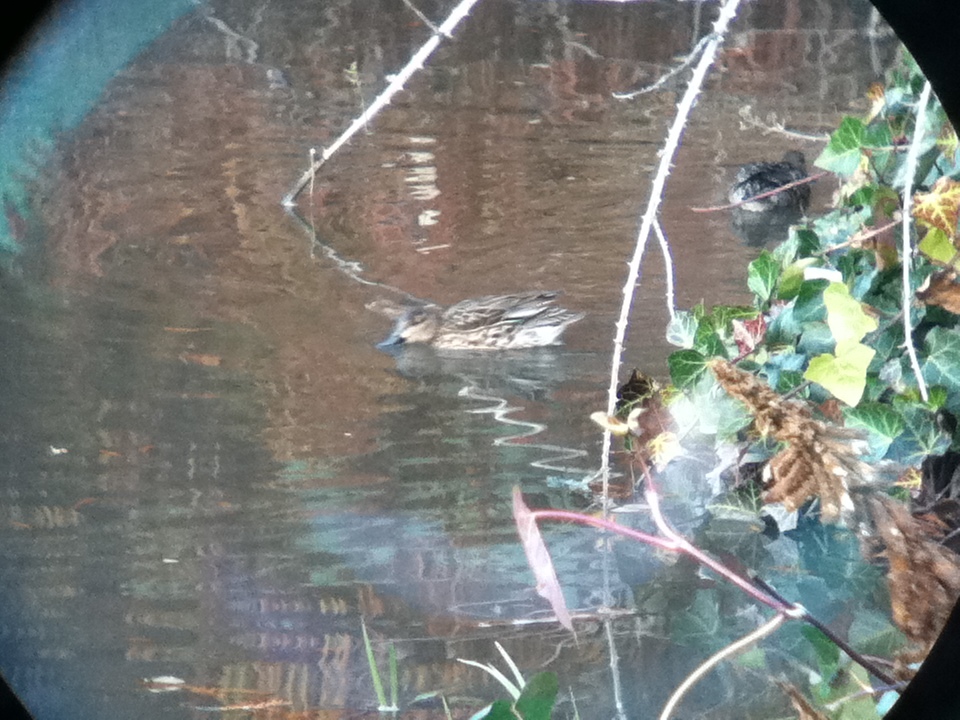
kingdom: Animalia
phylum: Chordata
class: Aves
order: Anseriformes
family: Anatidae
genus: Anas
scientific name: Anas crecca
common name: Eurasian teal
